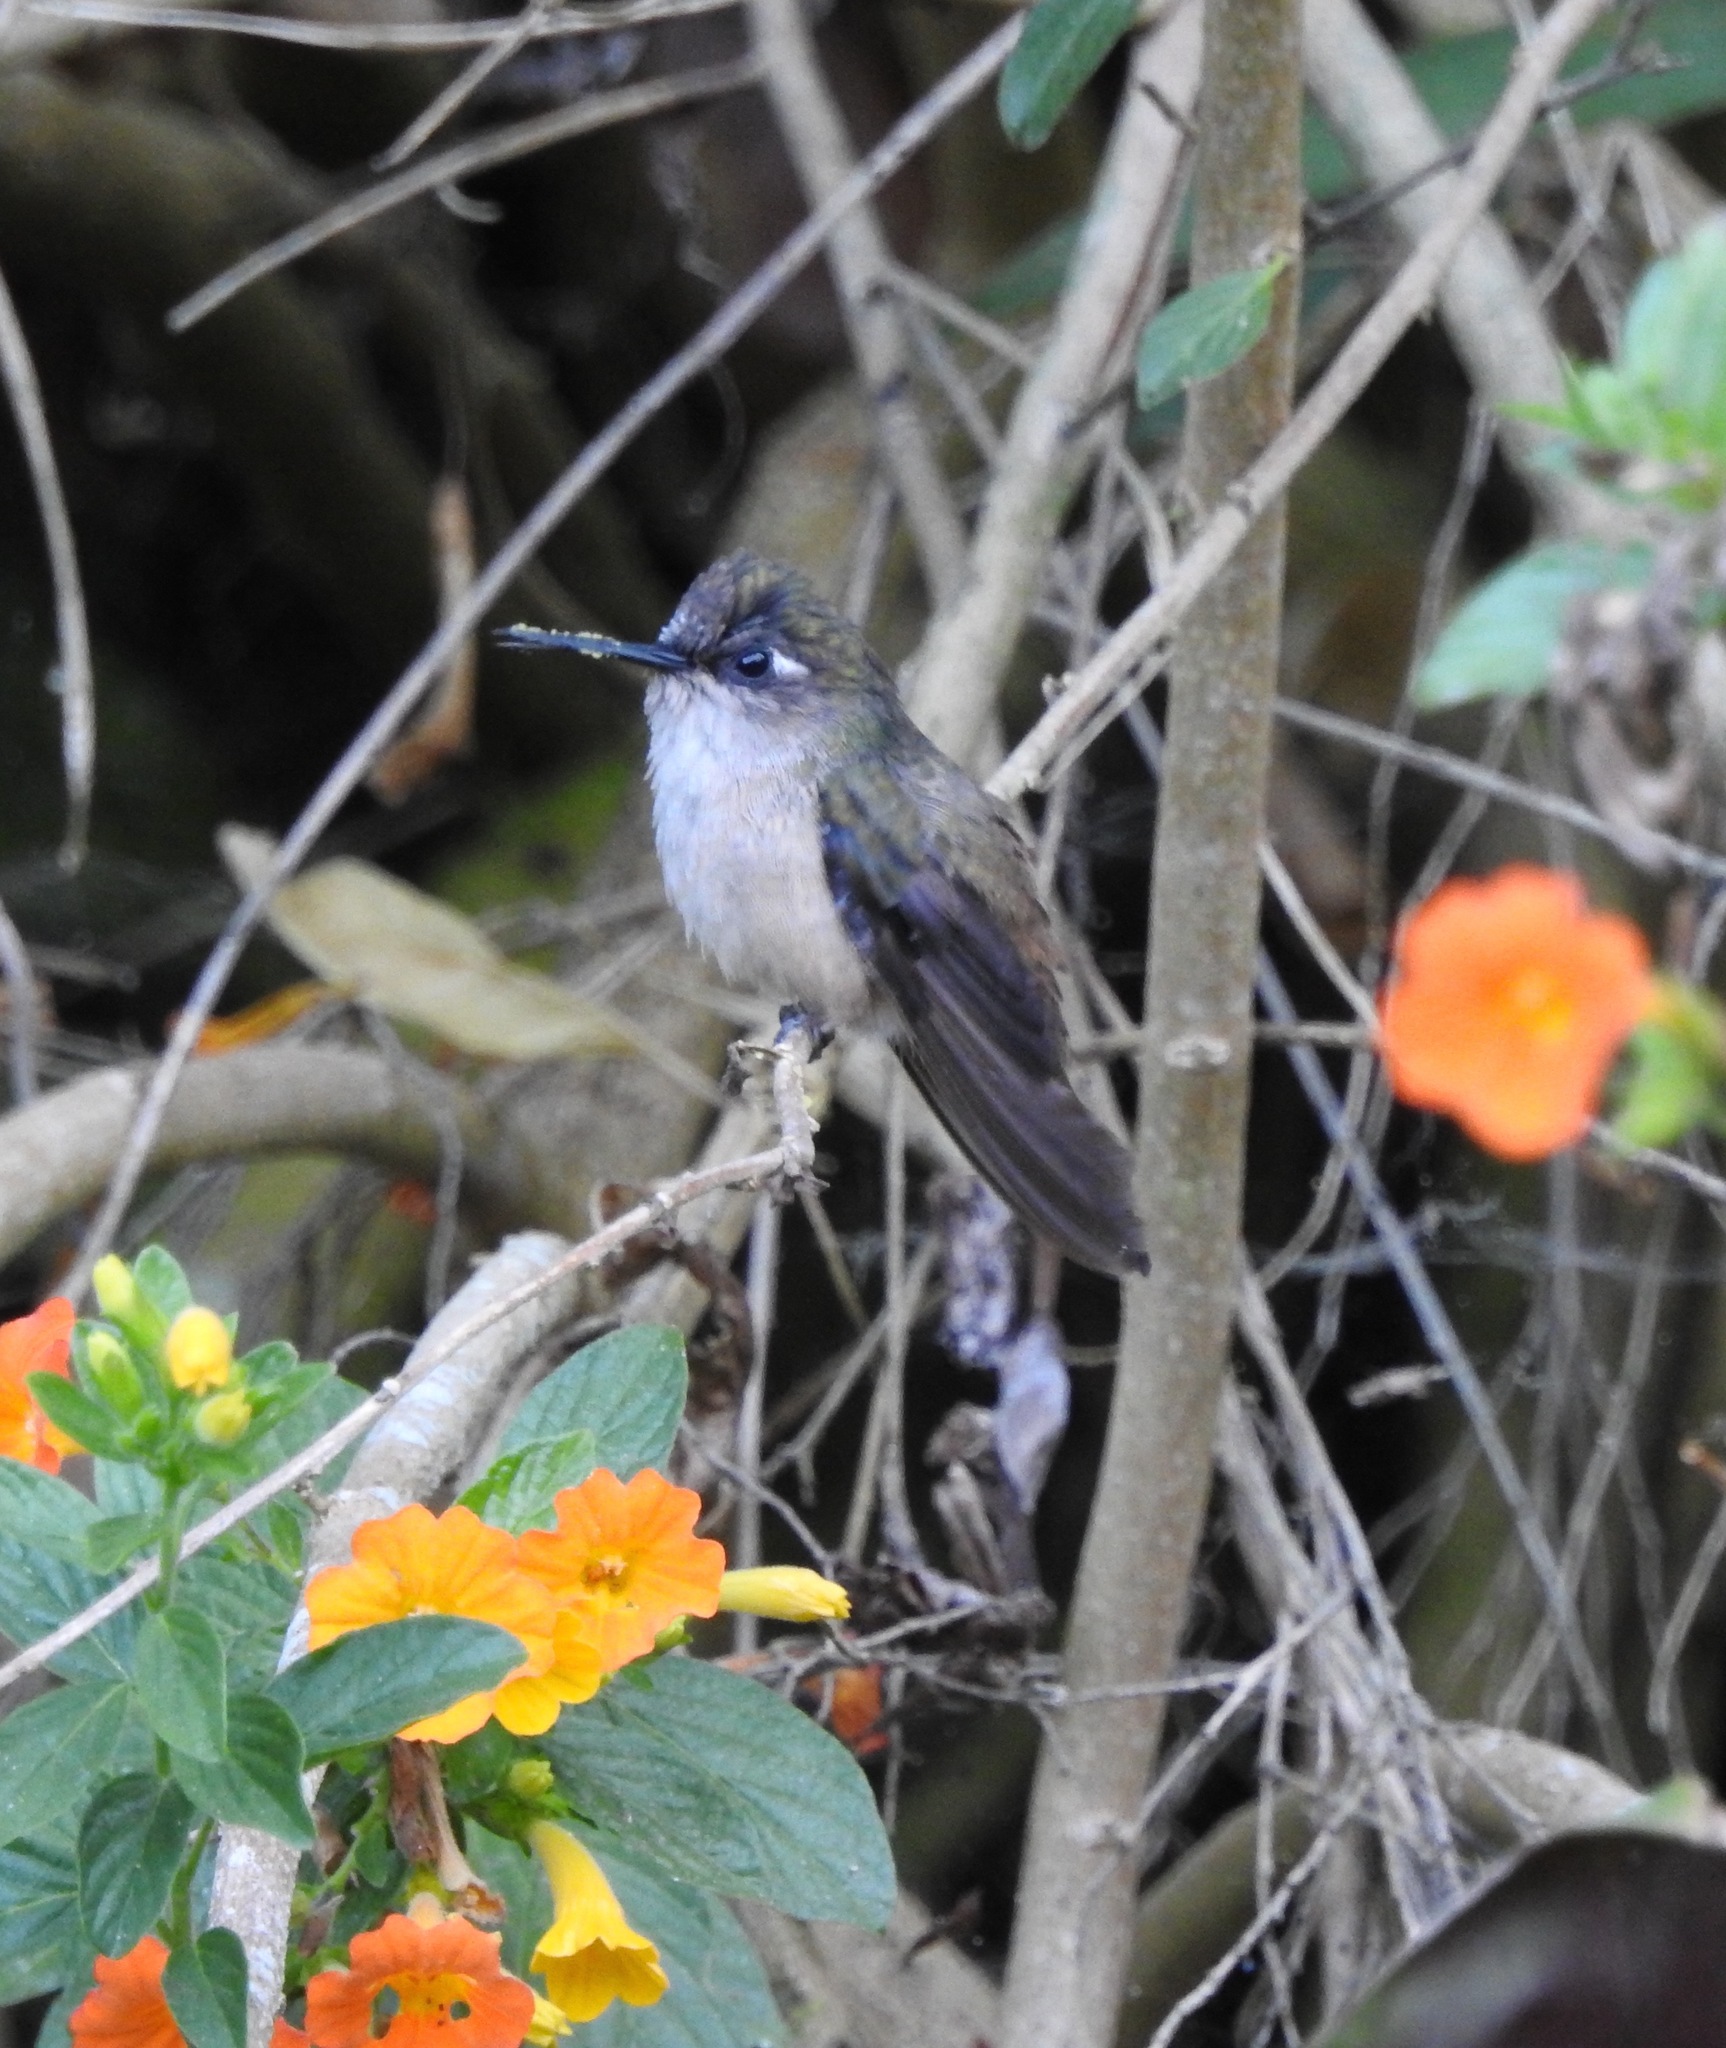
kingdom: Animalia
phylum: Chordata
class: Aves
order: Apodiformes
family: Trochilidae
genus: Anthocephala
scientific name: Anthocephala floriceps
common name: Santa marta blossomcrown
